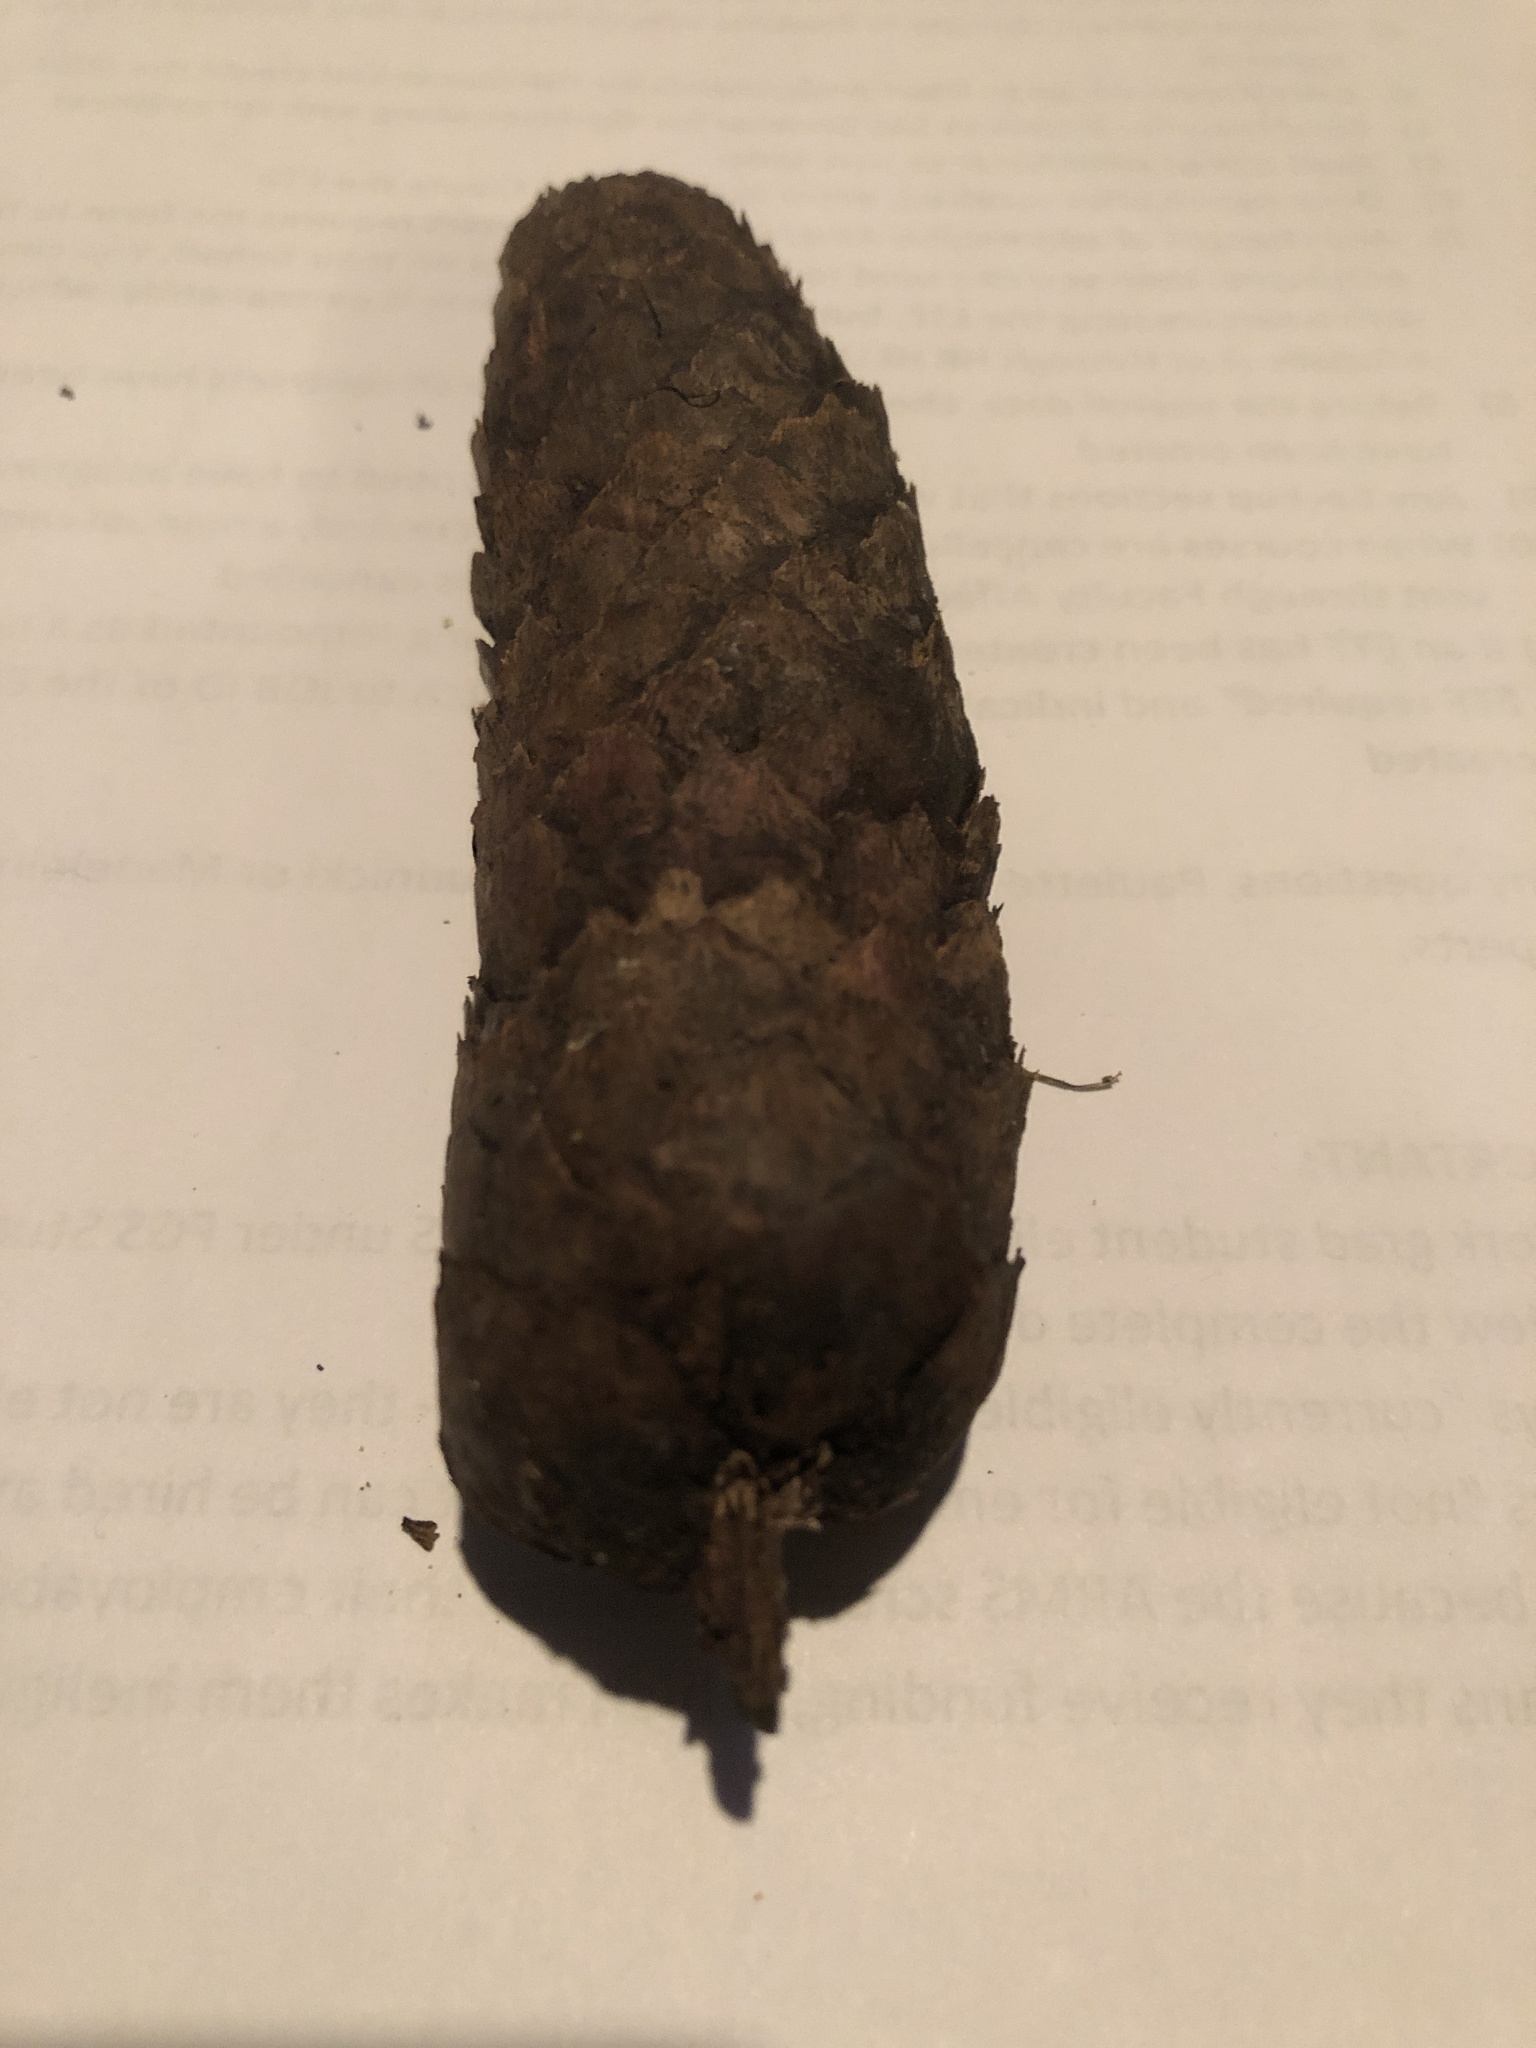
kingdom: Plantae
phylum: Tracheophyta
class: Pinopsida
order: Pinales
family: Pinaceae
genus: Picea
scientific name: Picea abies
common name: Norway spruce
